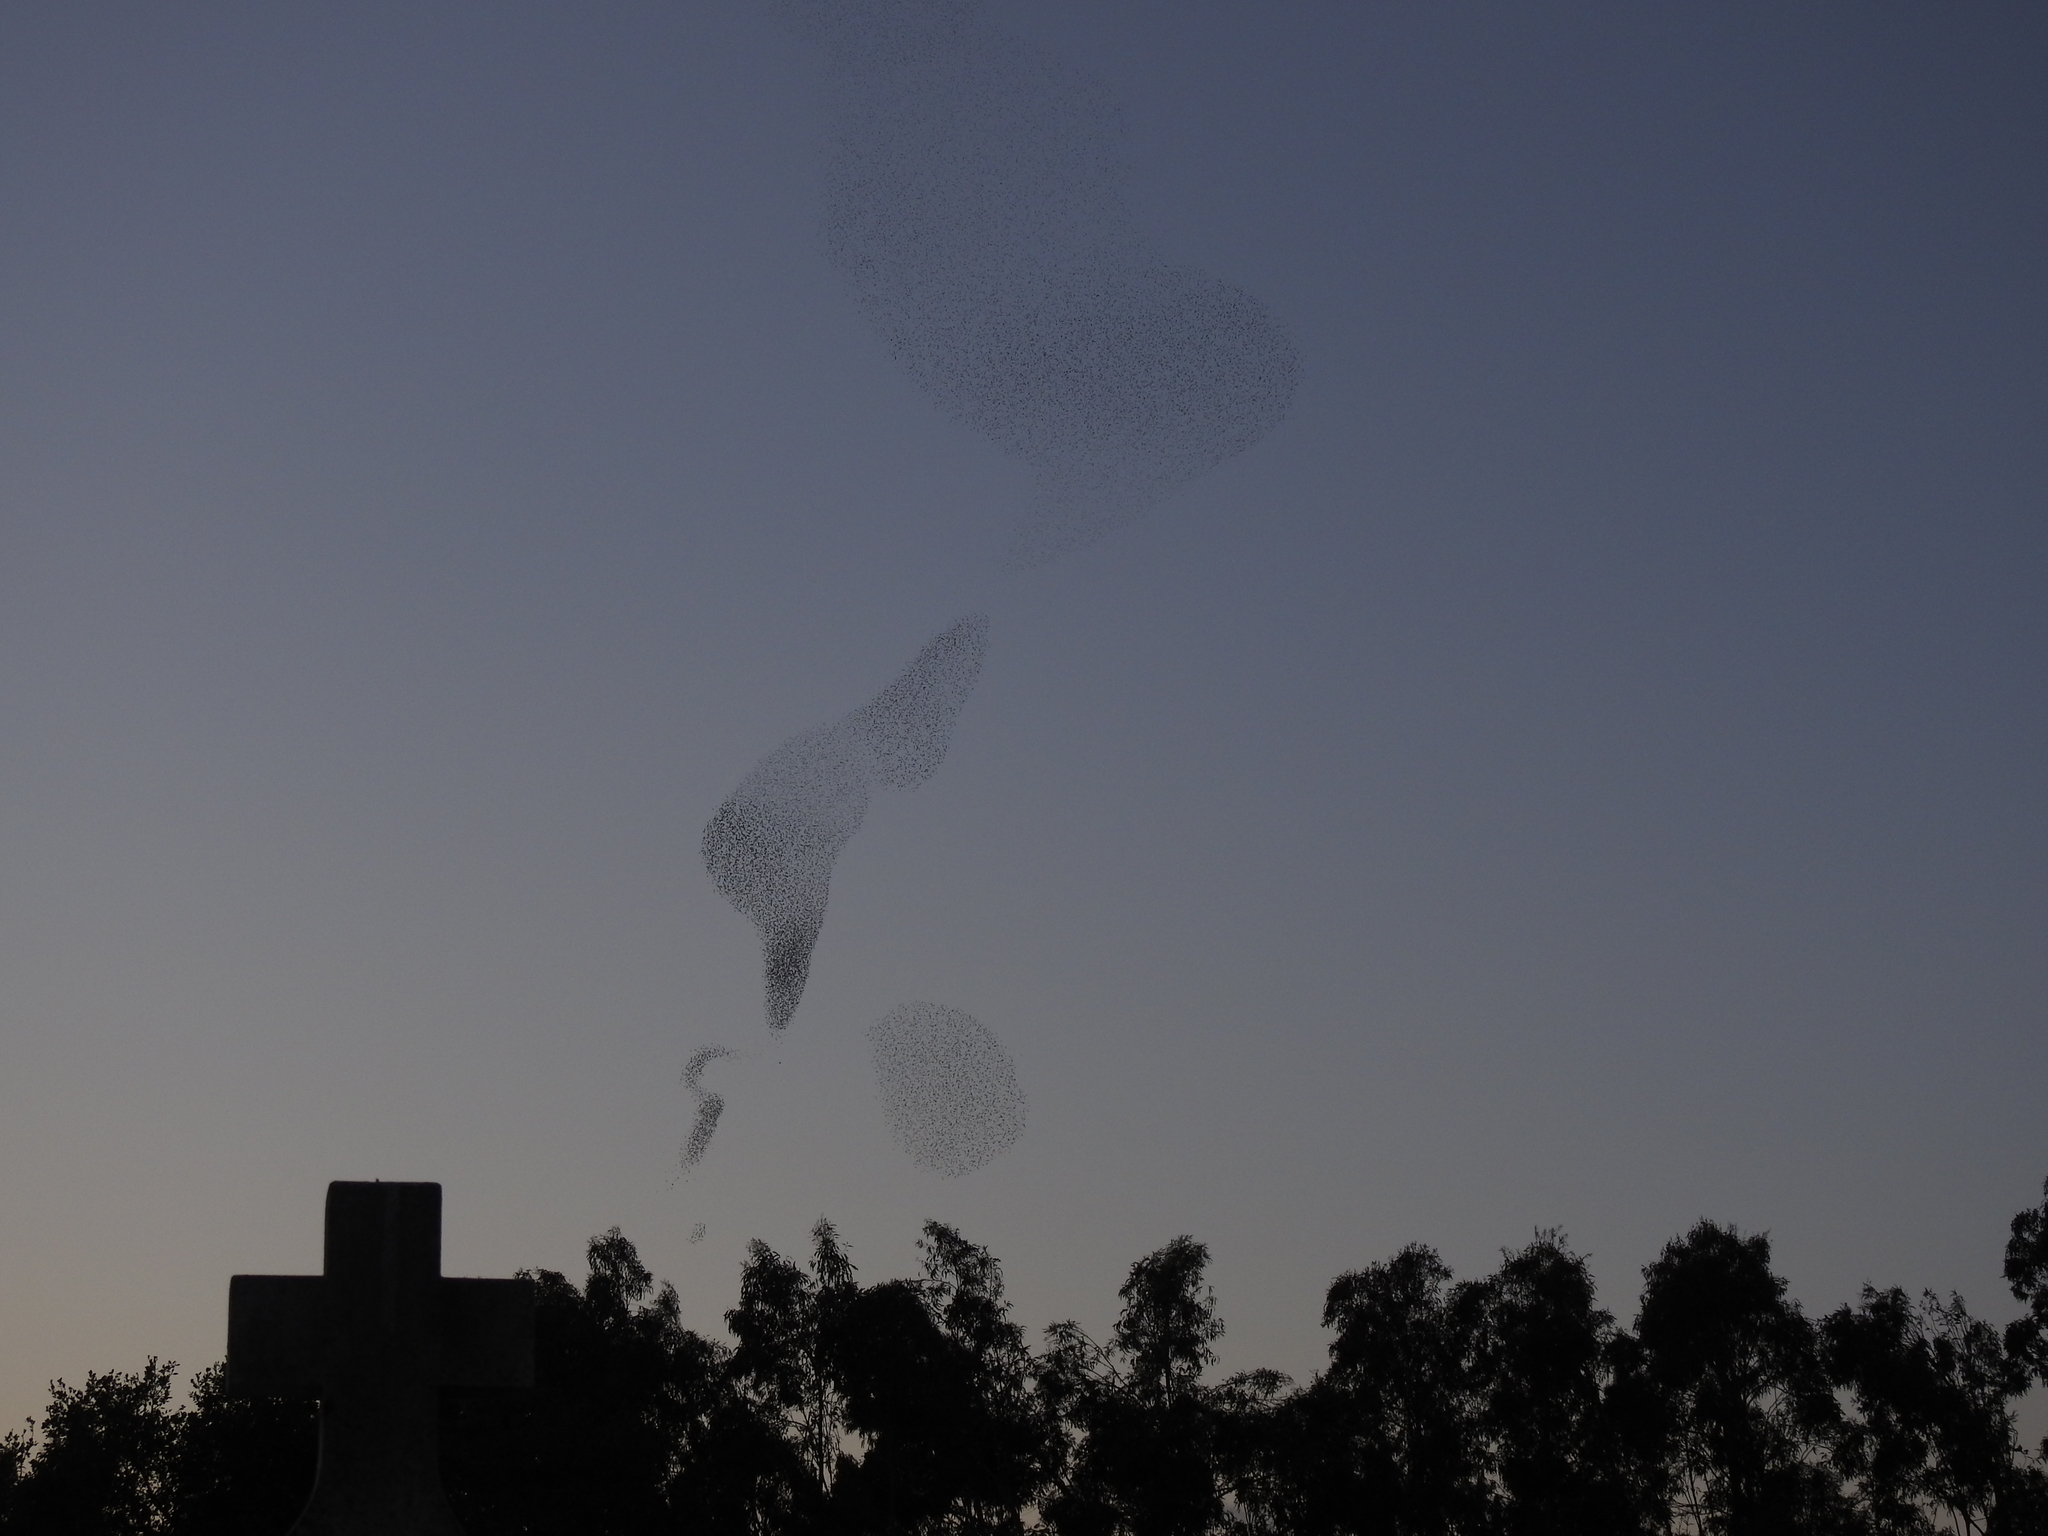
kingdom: Animalia
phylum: Chordata
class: Aves
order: Passeriformes
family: Sturnidae
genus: Sturnus
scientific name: Sturnus vulgaris
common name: Common starling
